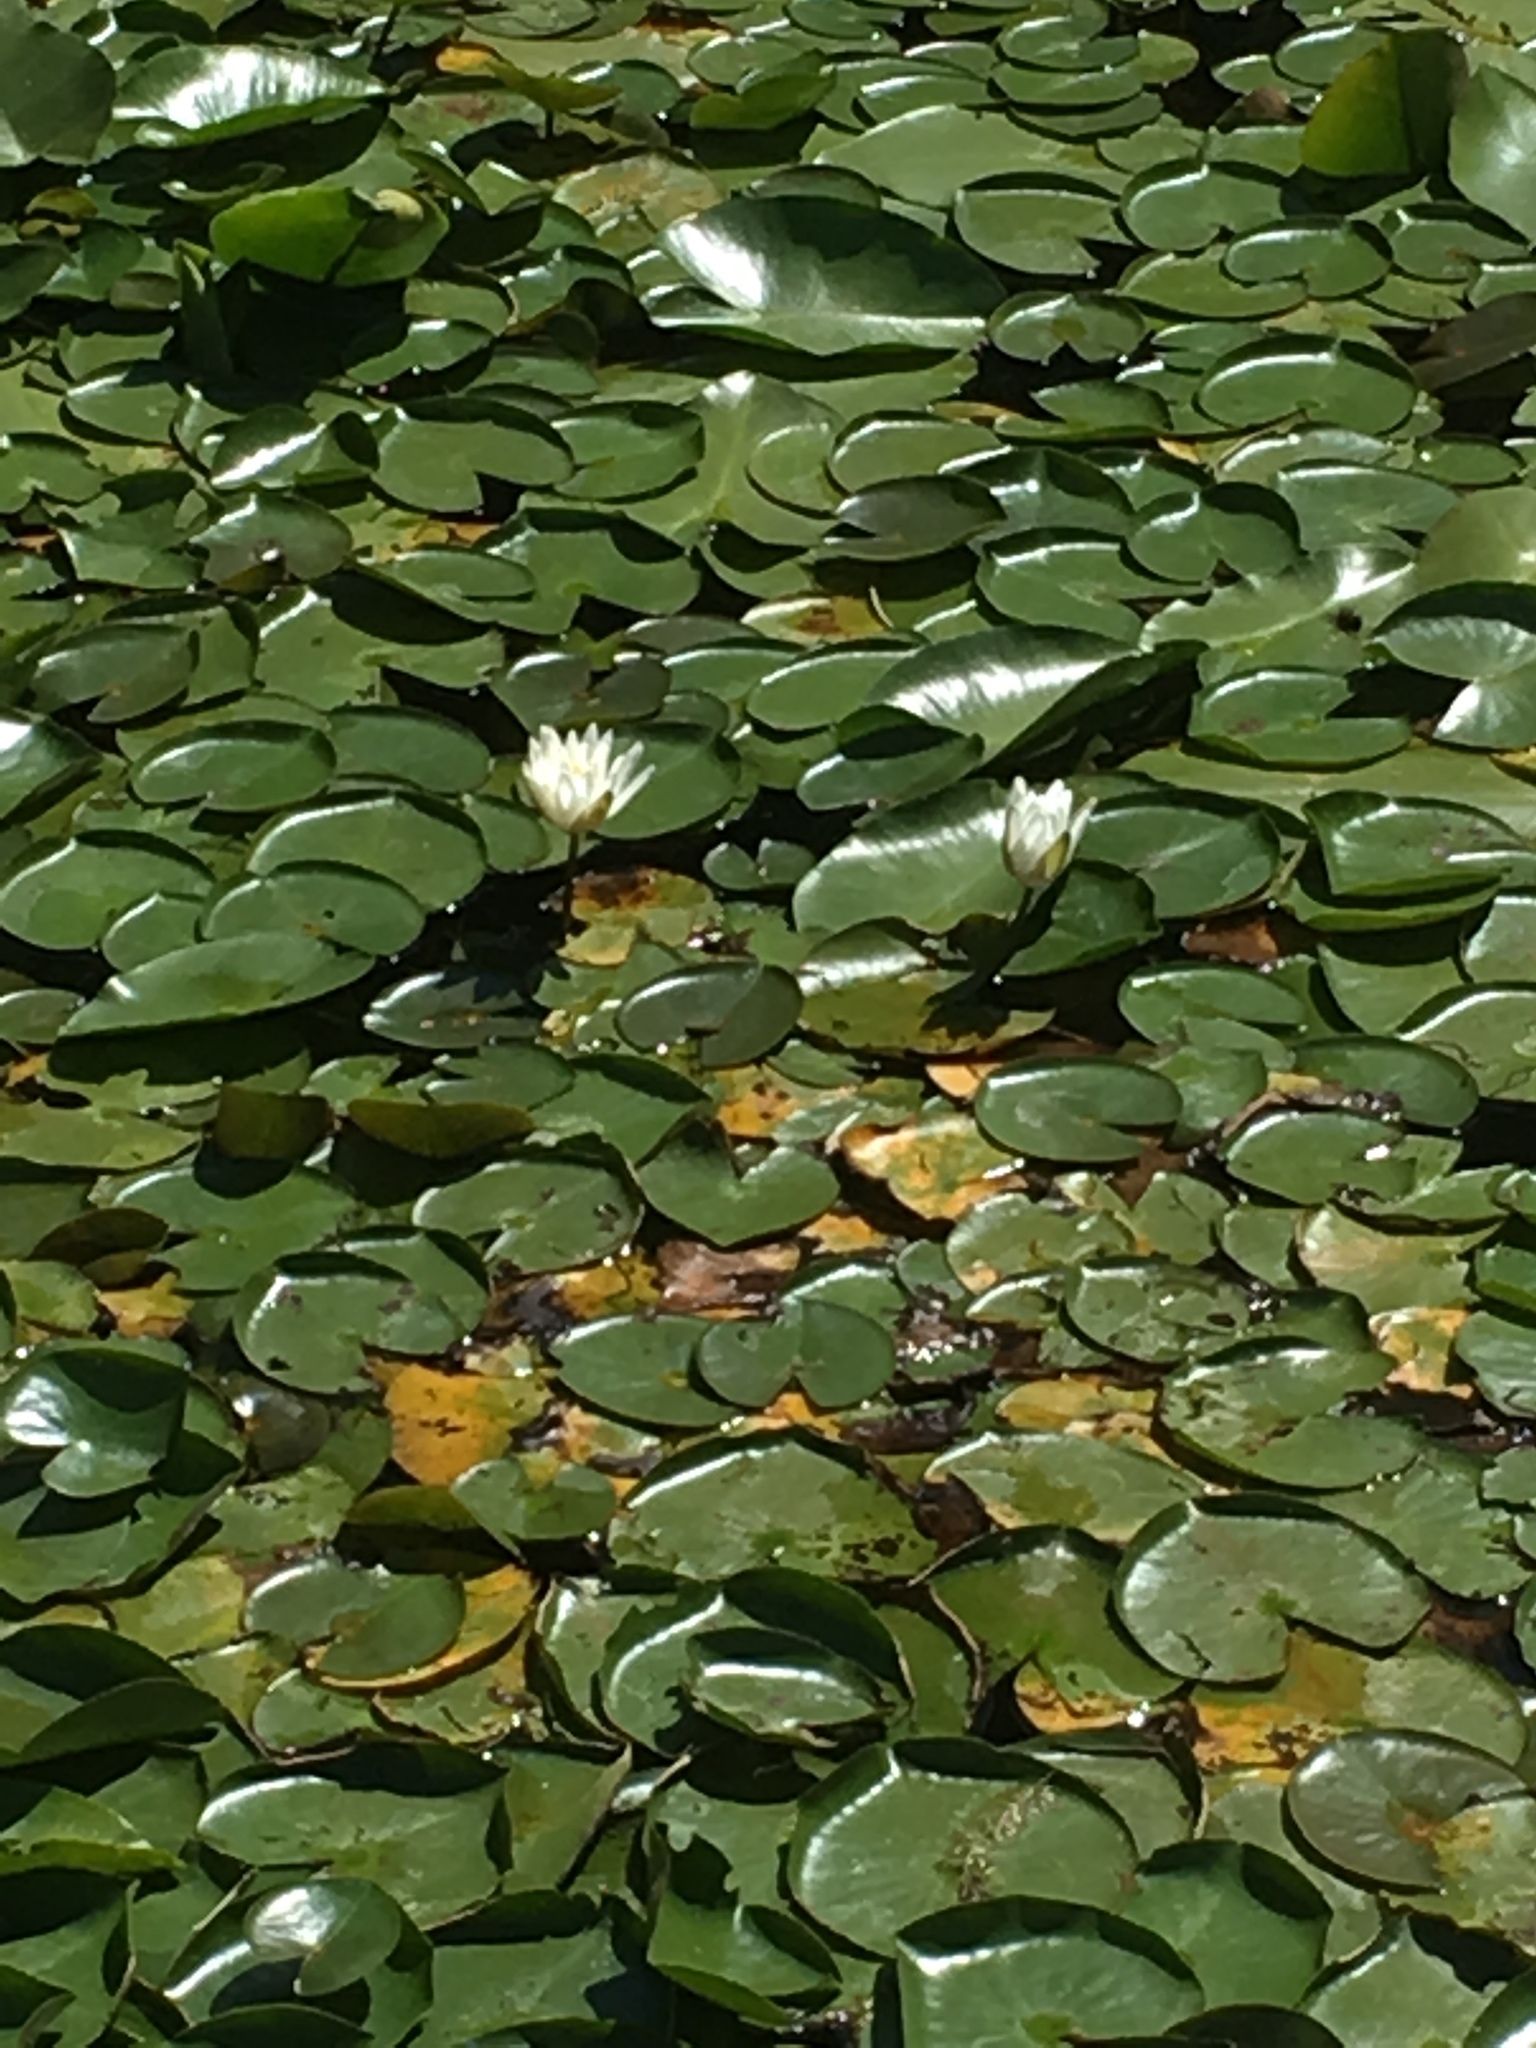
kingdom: Plantae
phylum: Tracheophyta
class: Magnoliopsida
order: Nymphaeales
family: Nymphaeaceae
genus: Nymphaea
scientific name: Nymphaea odorata
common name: Fragrant water-lily
